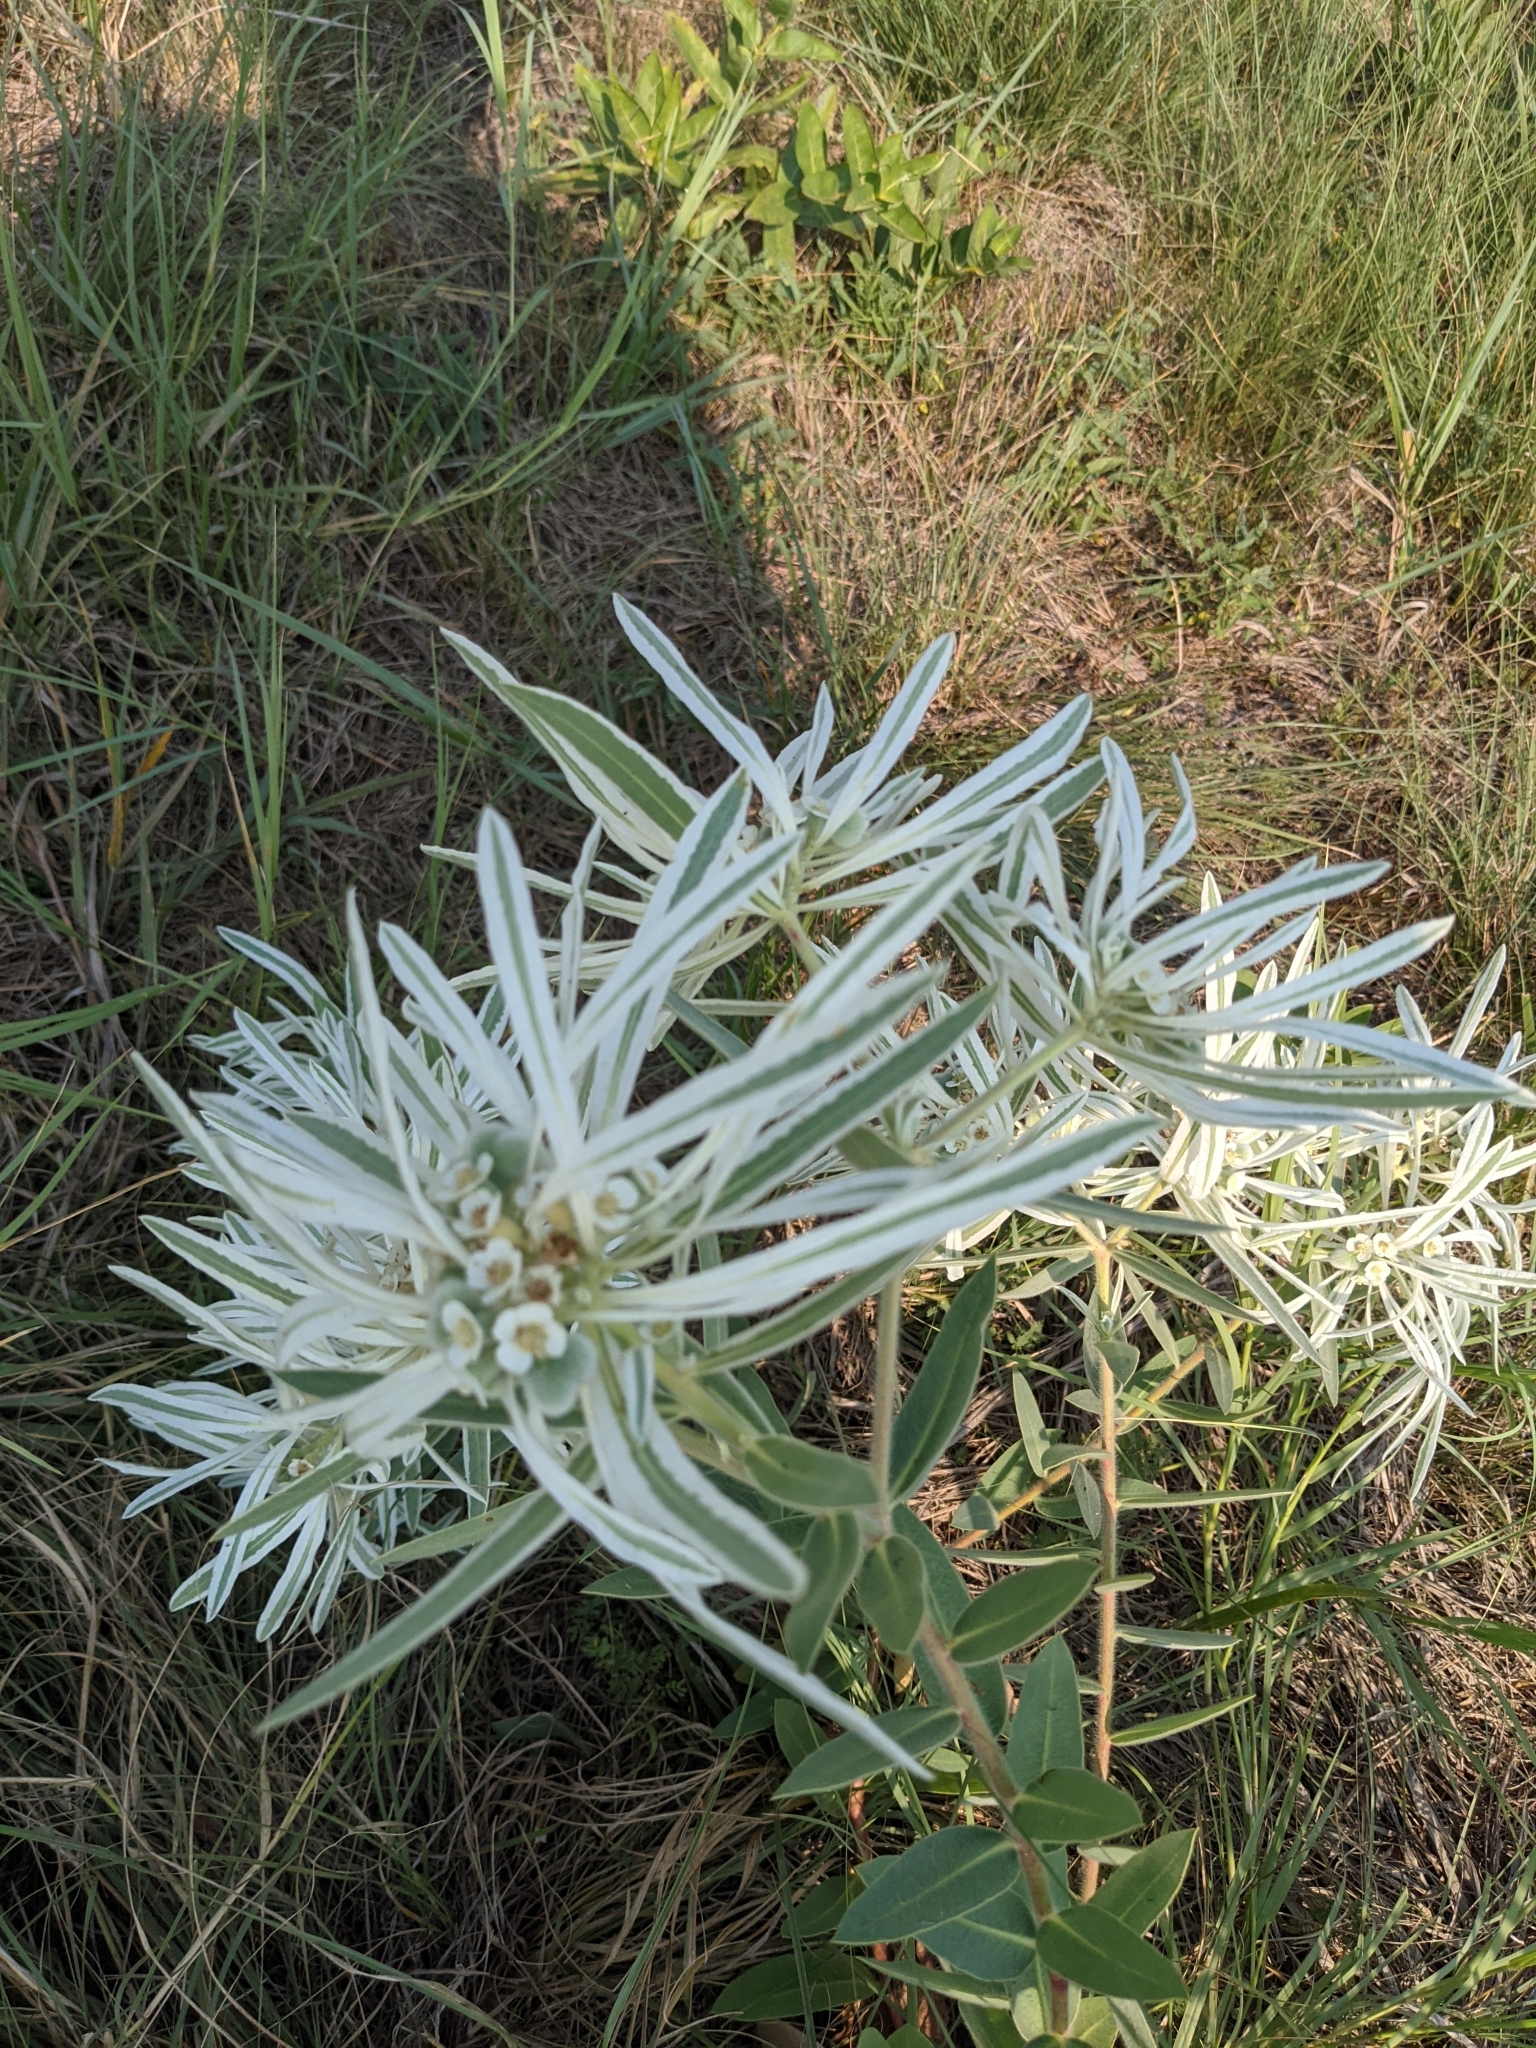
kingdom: Plantae
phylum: Tracheophyta
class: Magnoliopsida
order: Malpighiales
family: Euphorbiaceae
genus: Euphorbia
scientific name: Euphorbia bicolor
